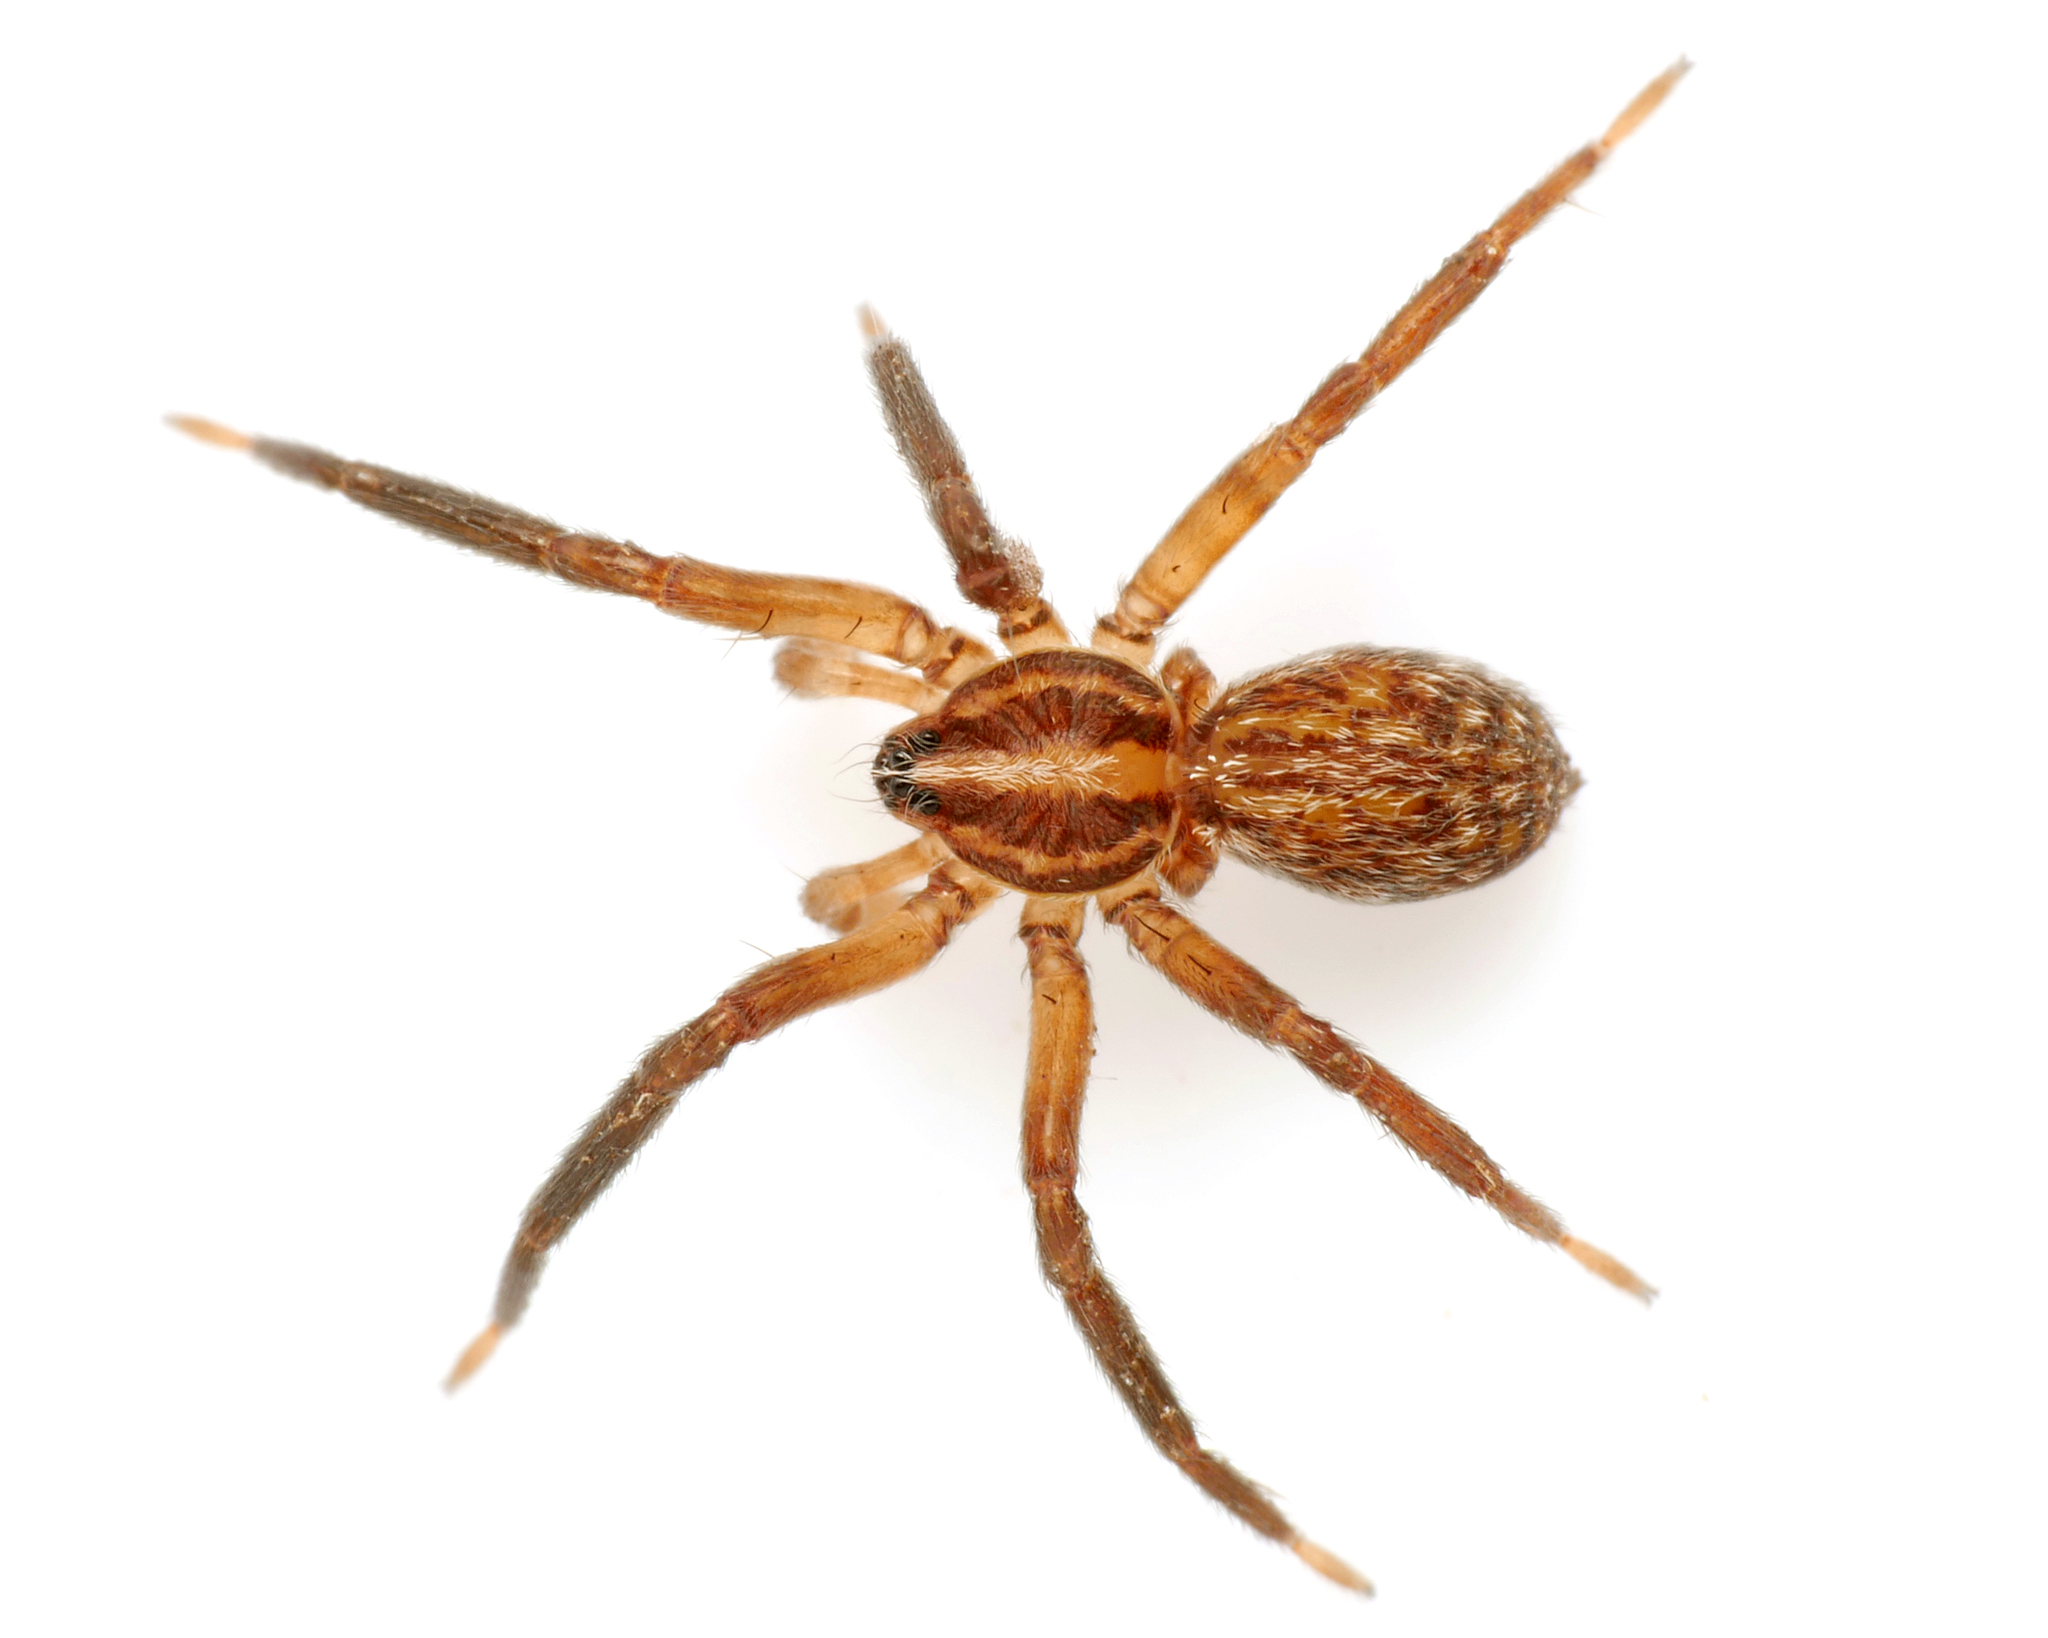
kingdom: Animalia
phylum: Arthropoda
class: Arachnida
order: Araneae
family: Miturgidae
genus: Zora
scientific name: Zora nemoralis
